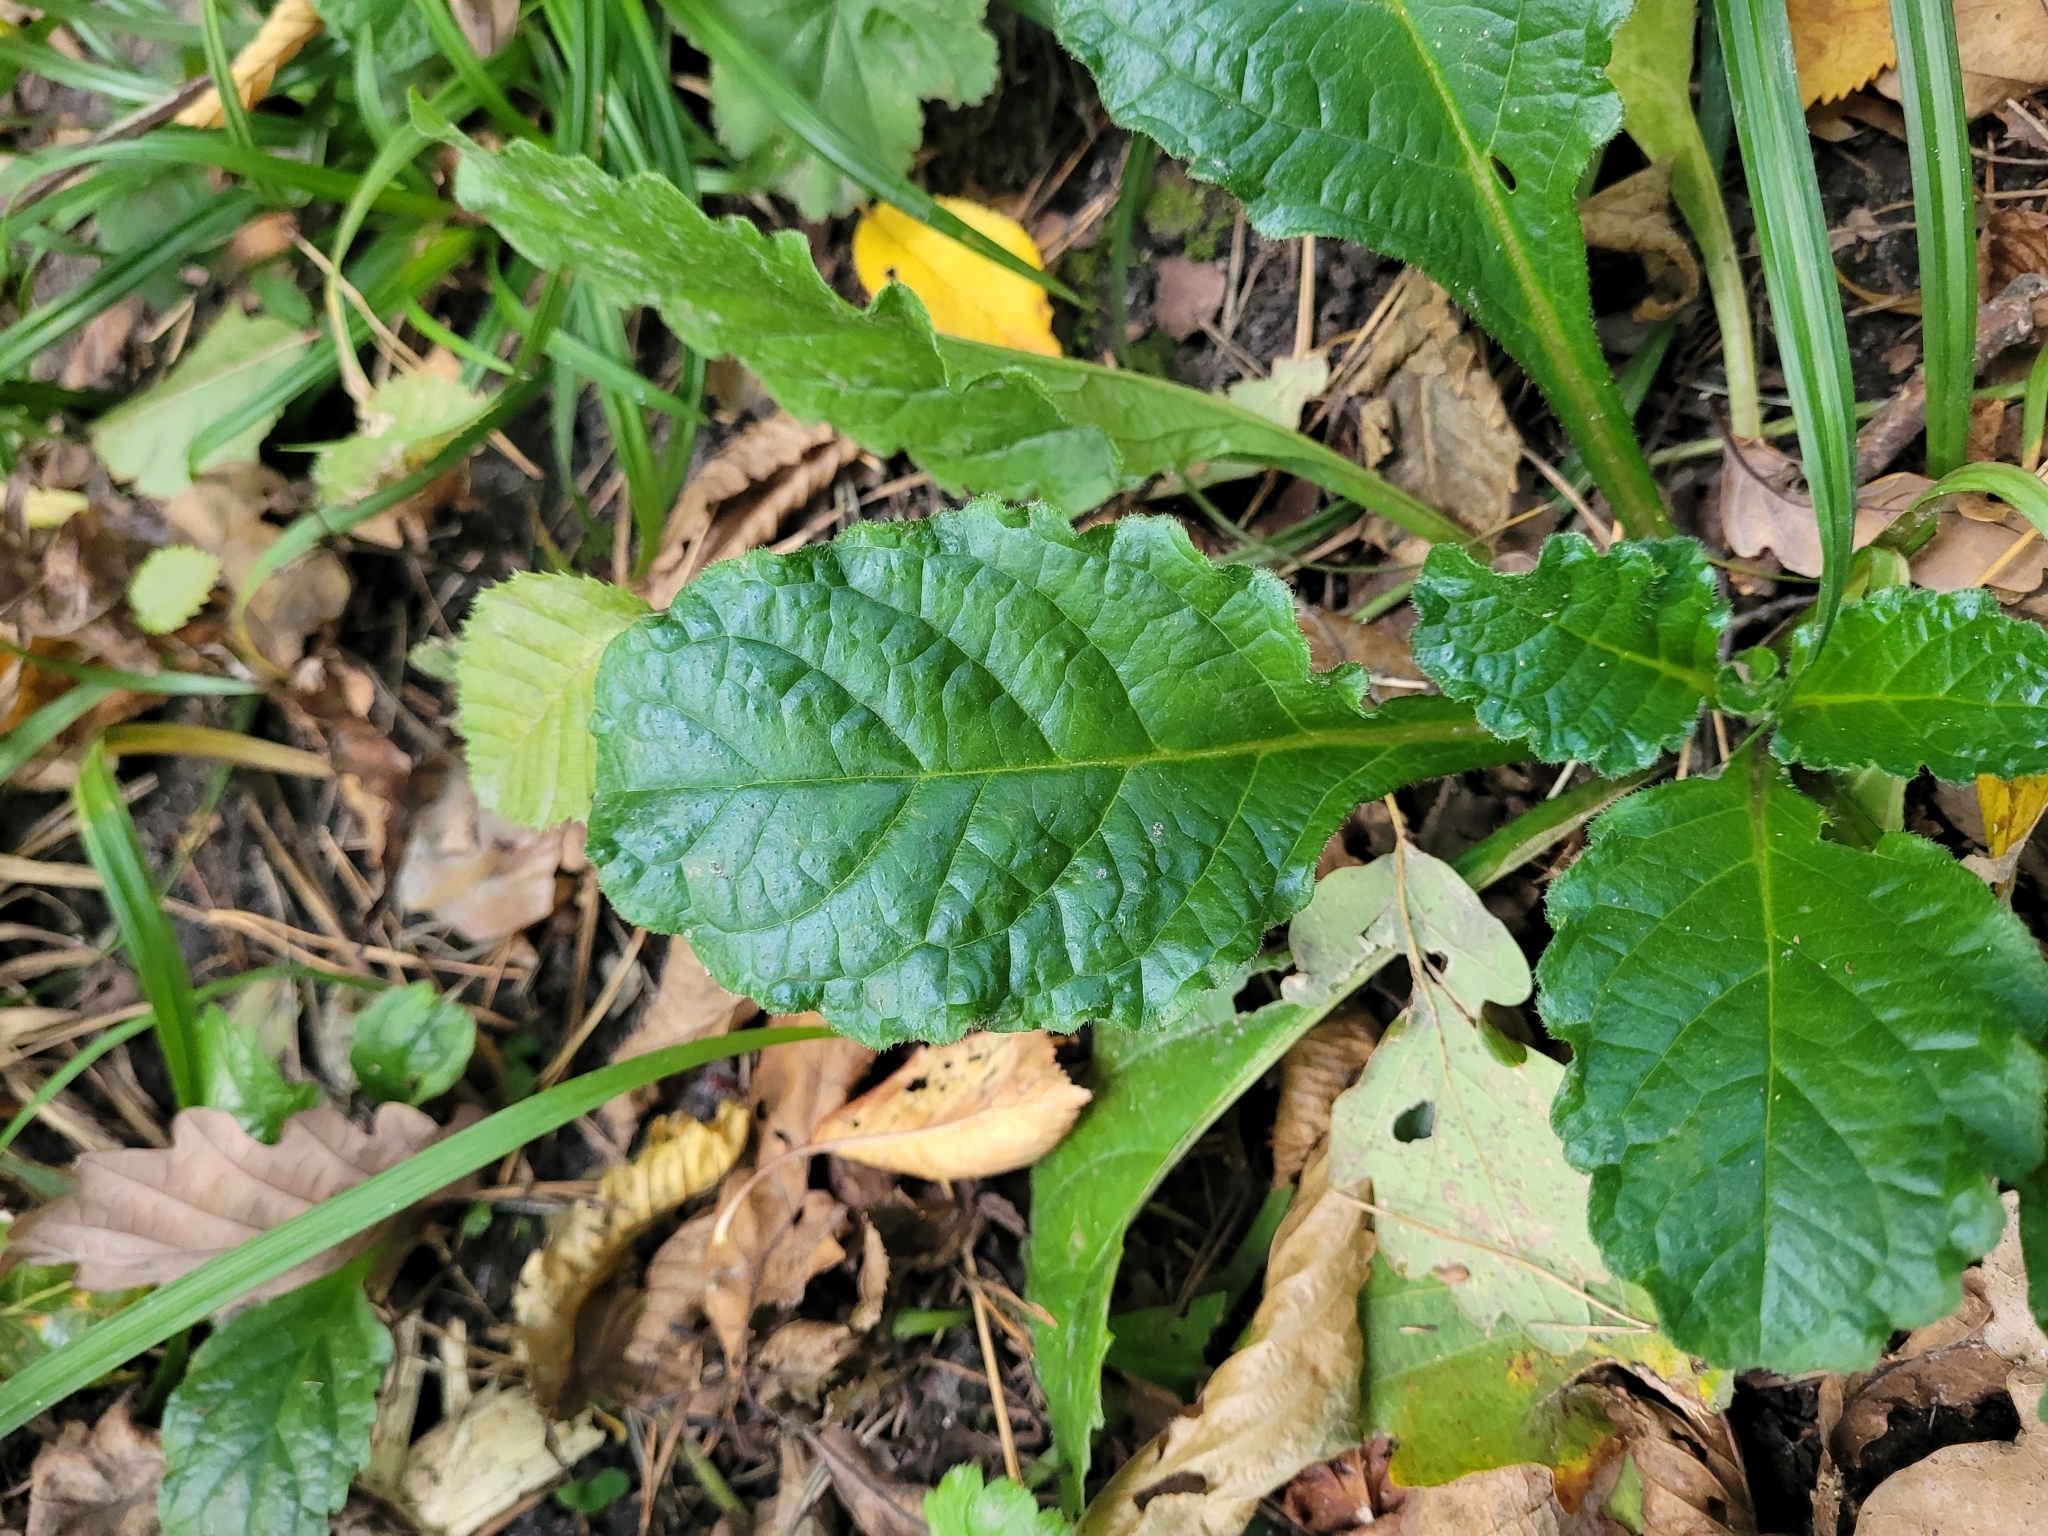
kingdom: Plantae
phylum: Tracheophyta
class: Magnoliopsida
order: Lamiales
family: Lamiaceae
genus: Ajuga
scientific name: Ajuga reptans
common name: Bugle
